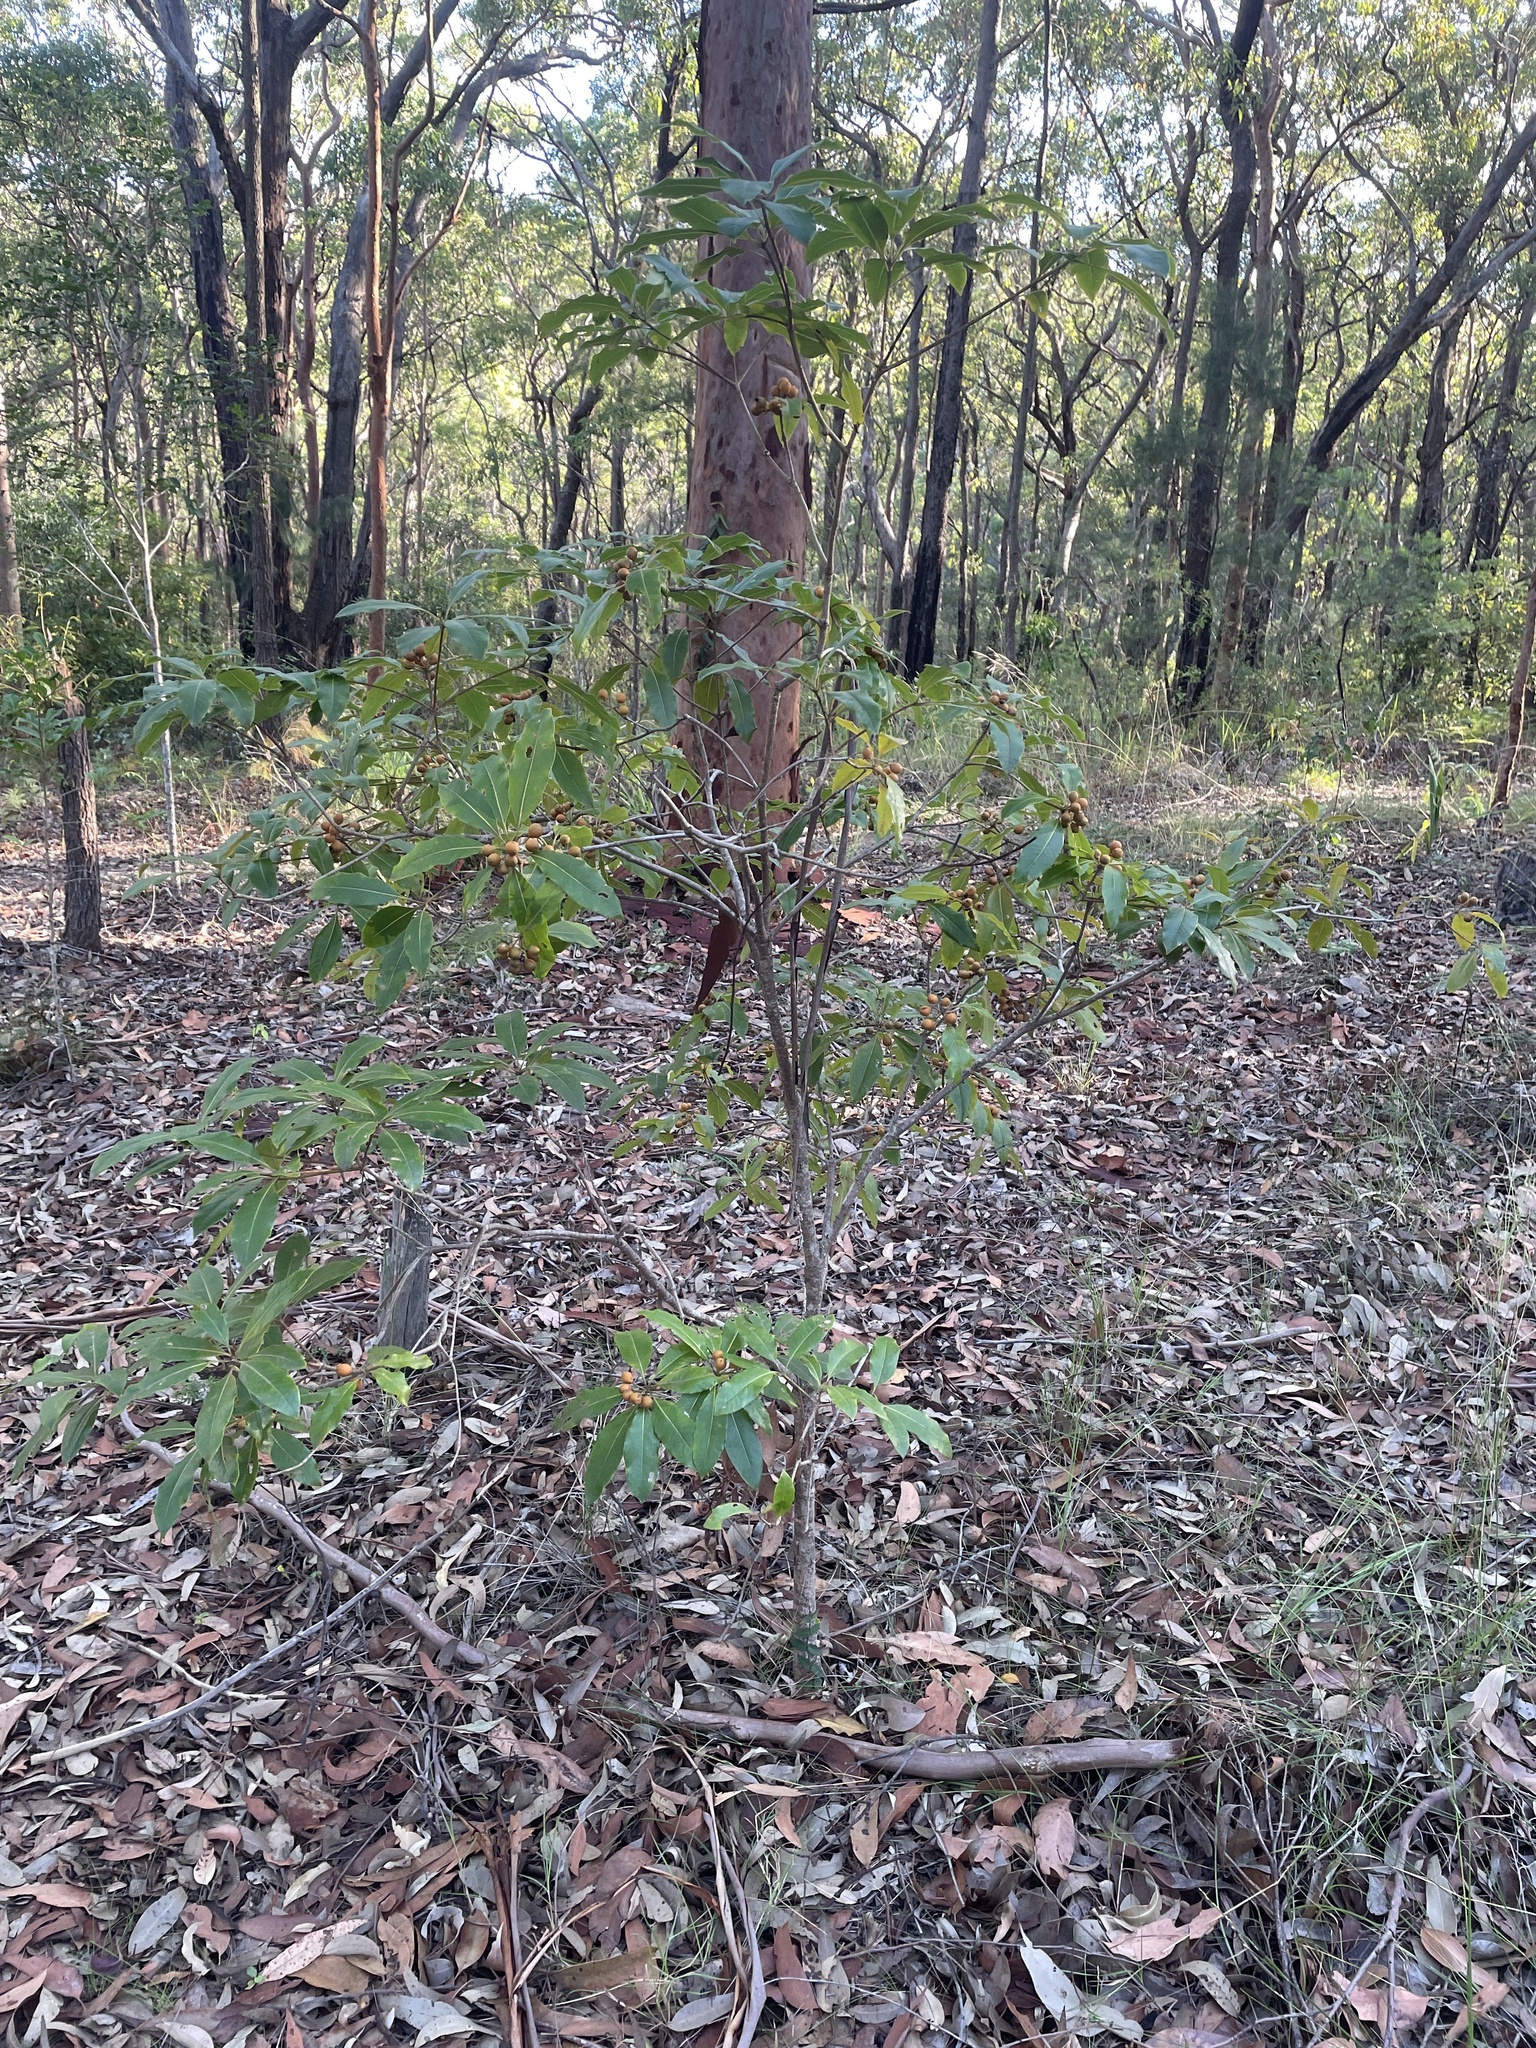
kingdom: Plantae
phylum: Tracheophyta
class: Magnoliopsida
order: Apiales
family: Pittosporaceae
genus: Pittosporum
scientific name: Pittosporum undulatum
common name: Australian cheesewood
